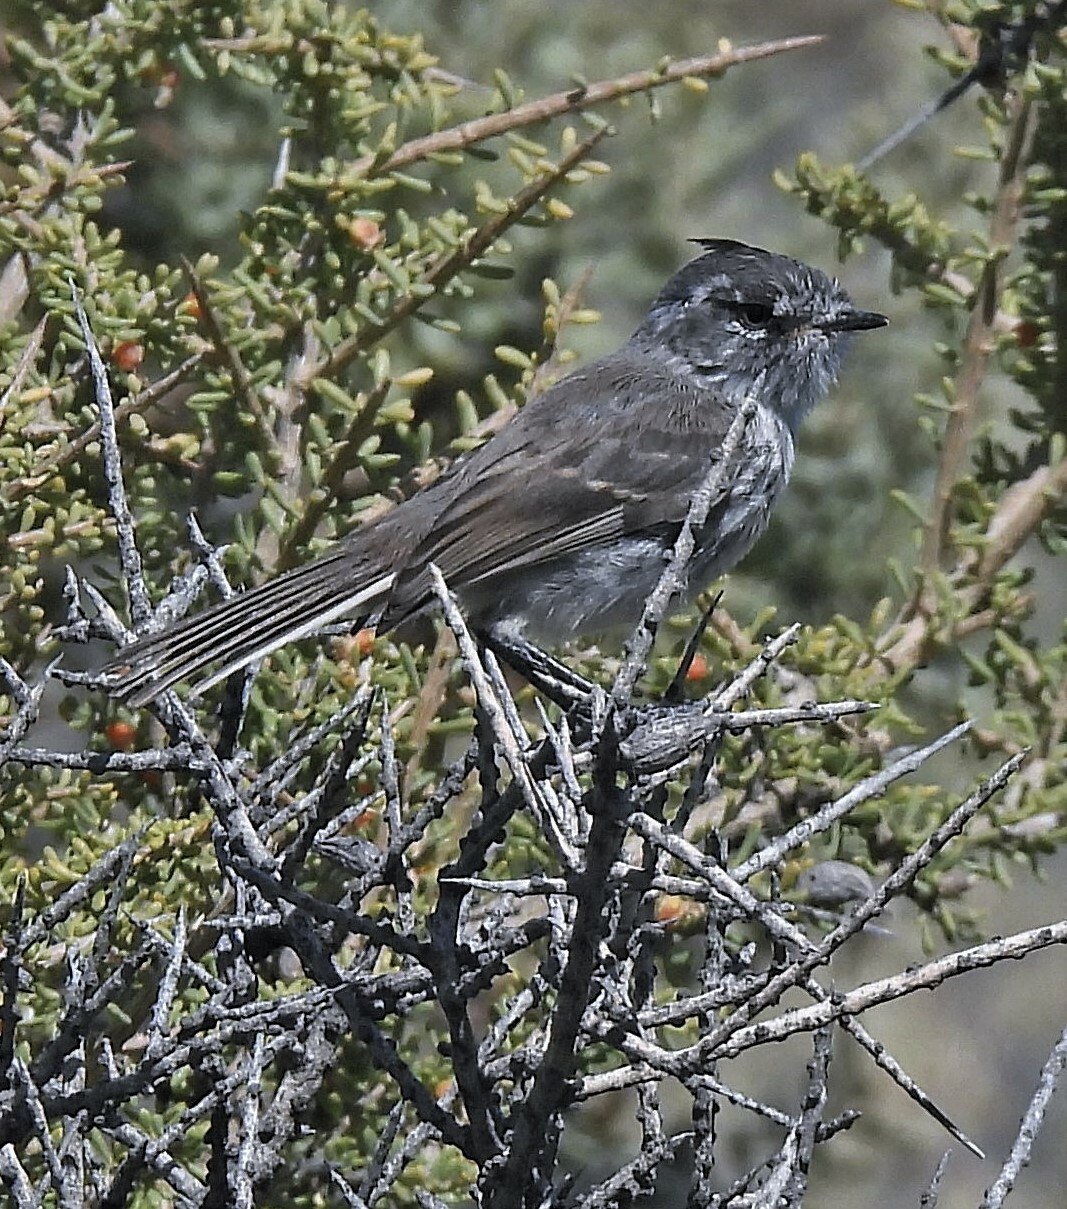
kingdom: Animalia
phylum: Chordata
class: Aves
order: Passeriformes
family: Tyrannidae
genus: Anairetes
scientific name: Anairetes parulus
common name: Tufted tit-tyrant
